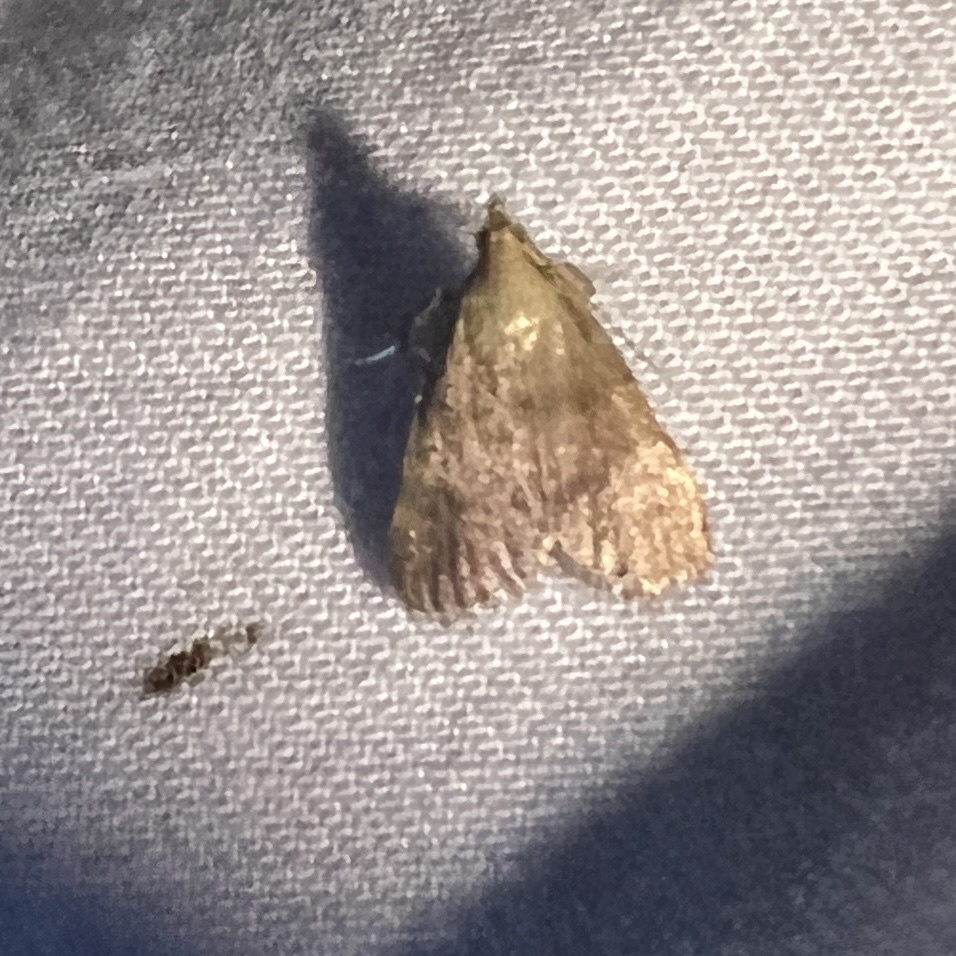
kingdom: Animalia
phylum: Arthropoda
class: Insecta
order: Lepidoptera
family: Pyralidae
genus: Condylolomia
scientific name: Condylolomia participialis
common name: Drab condylolomia moth
